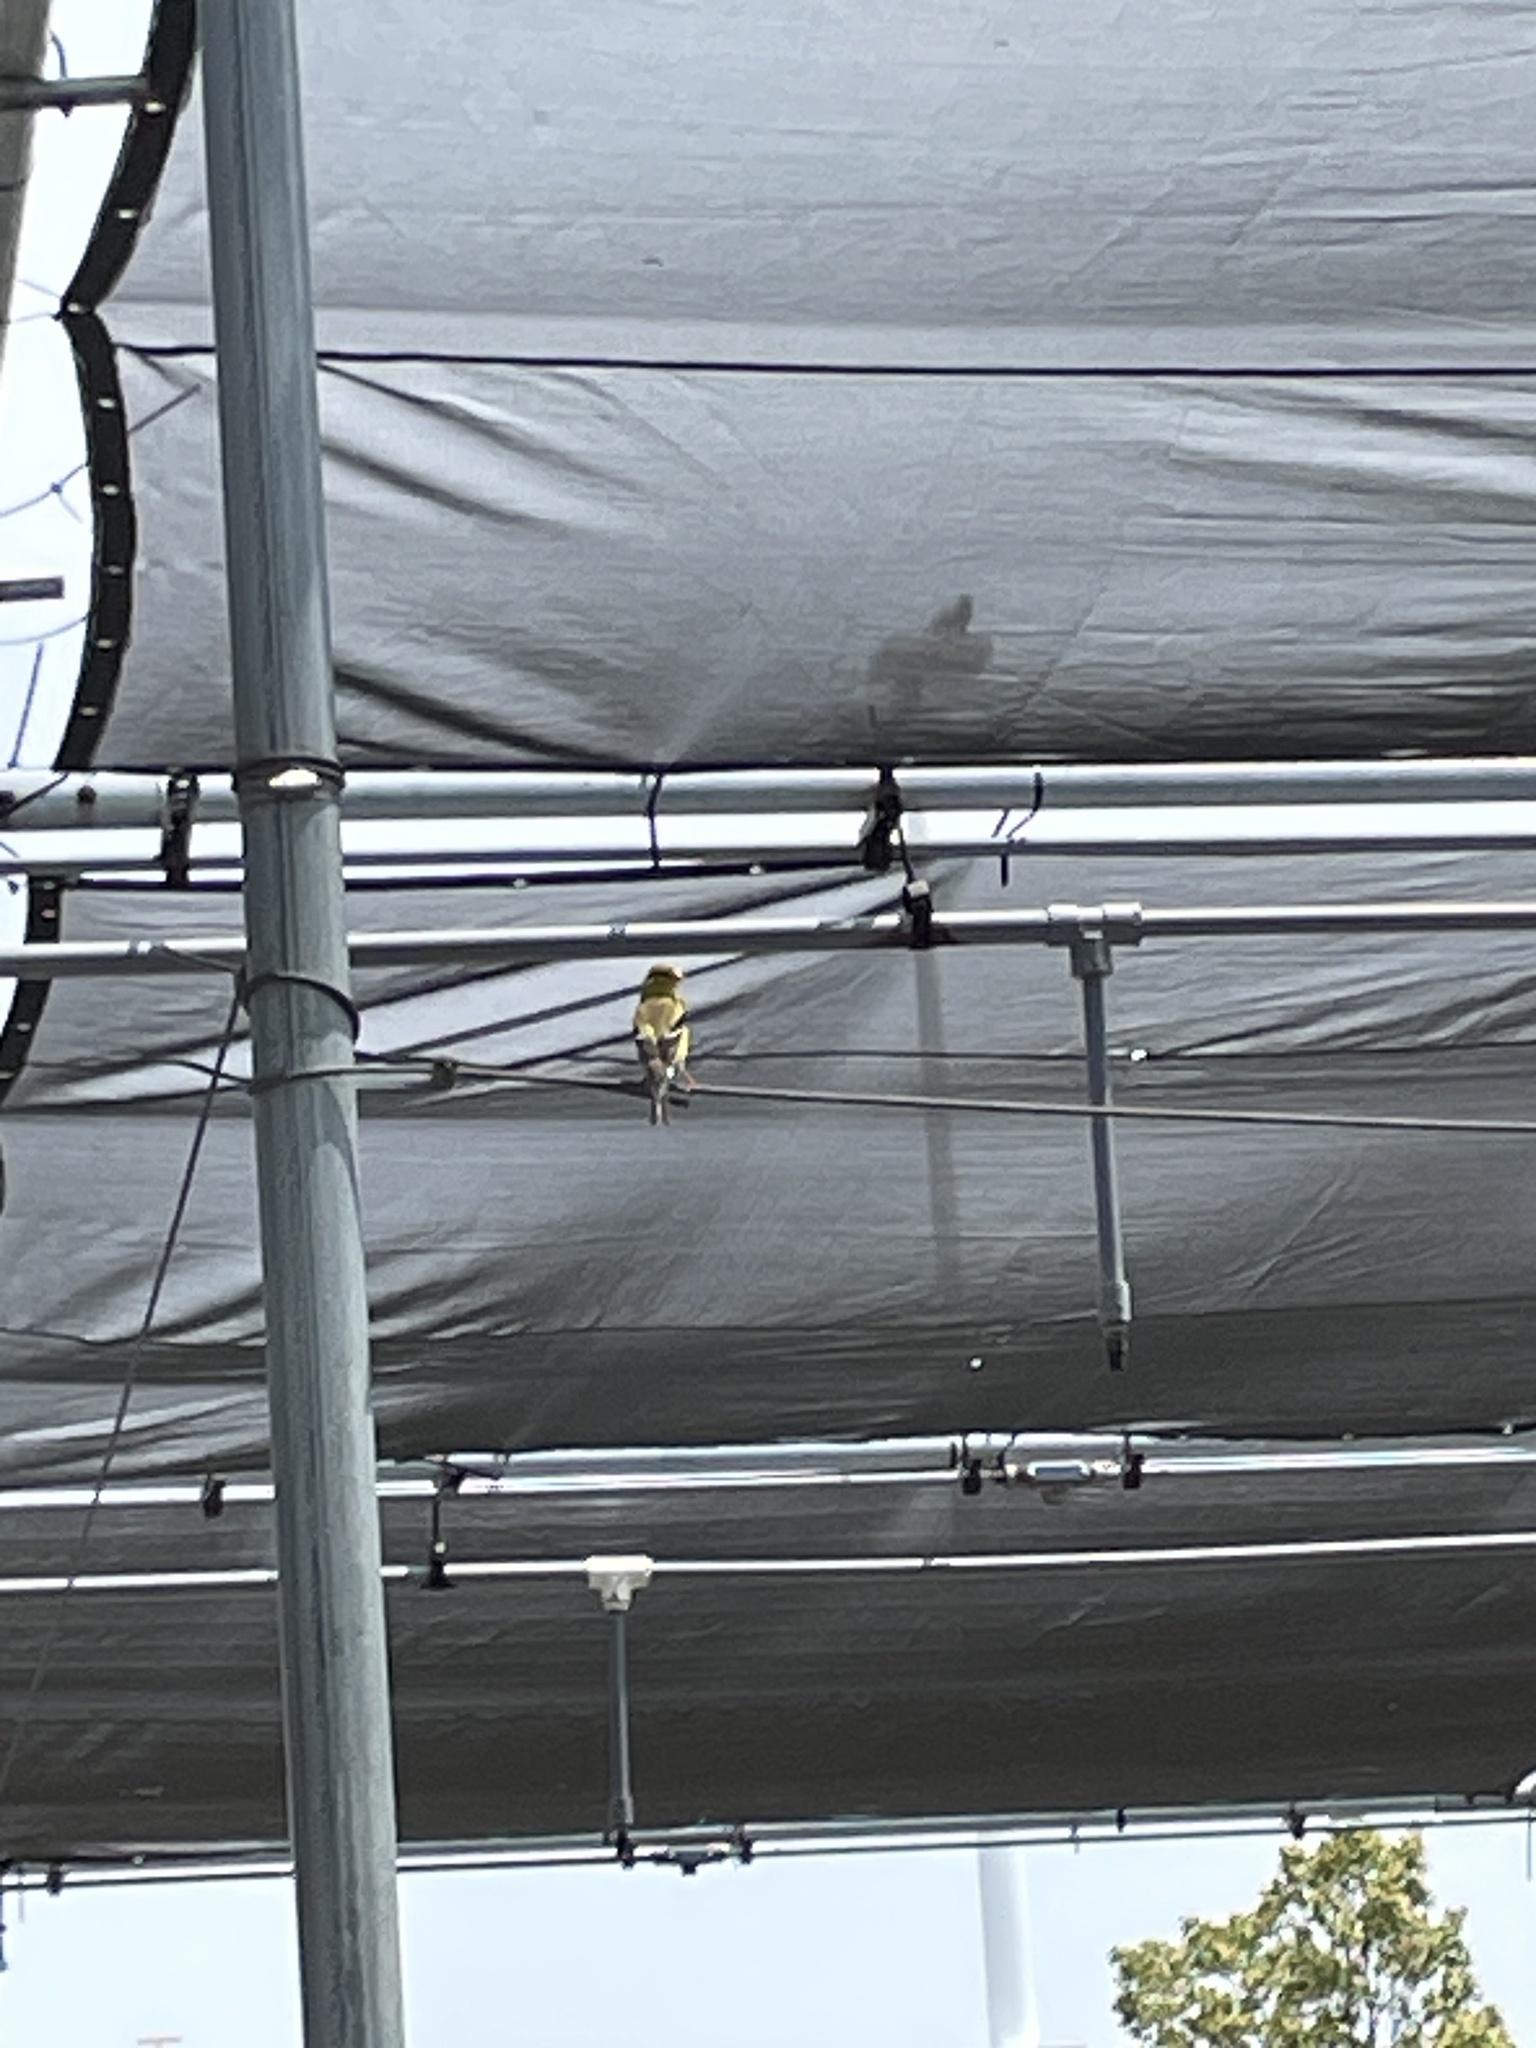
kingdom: Animalia
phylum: Chordata
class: Aves
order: Passeriformes
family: Fringillidae
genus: Spinus
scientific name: Spinus tristis
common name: American goldfinch
